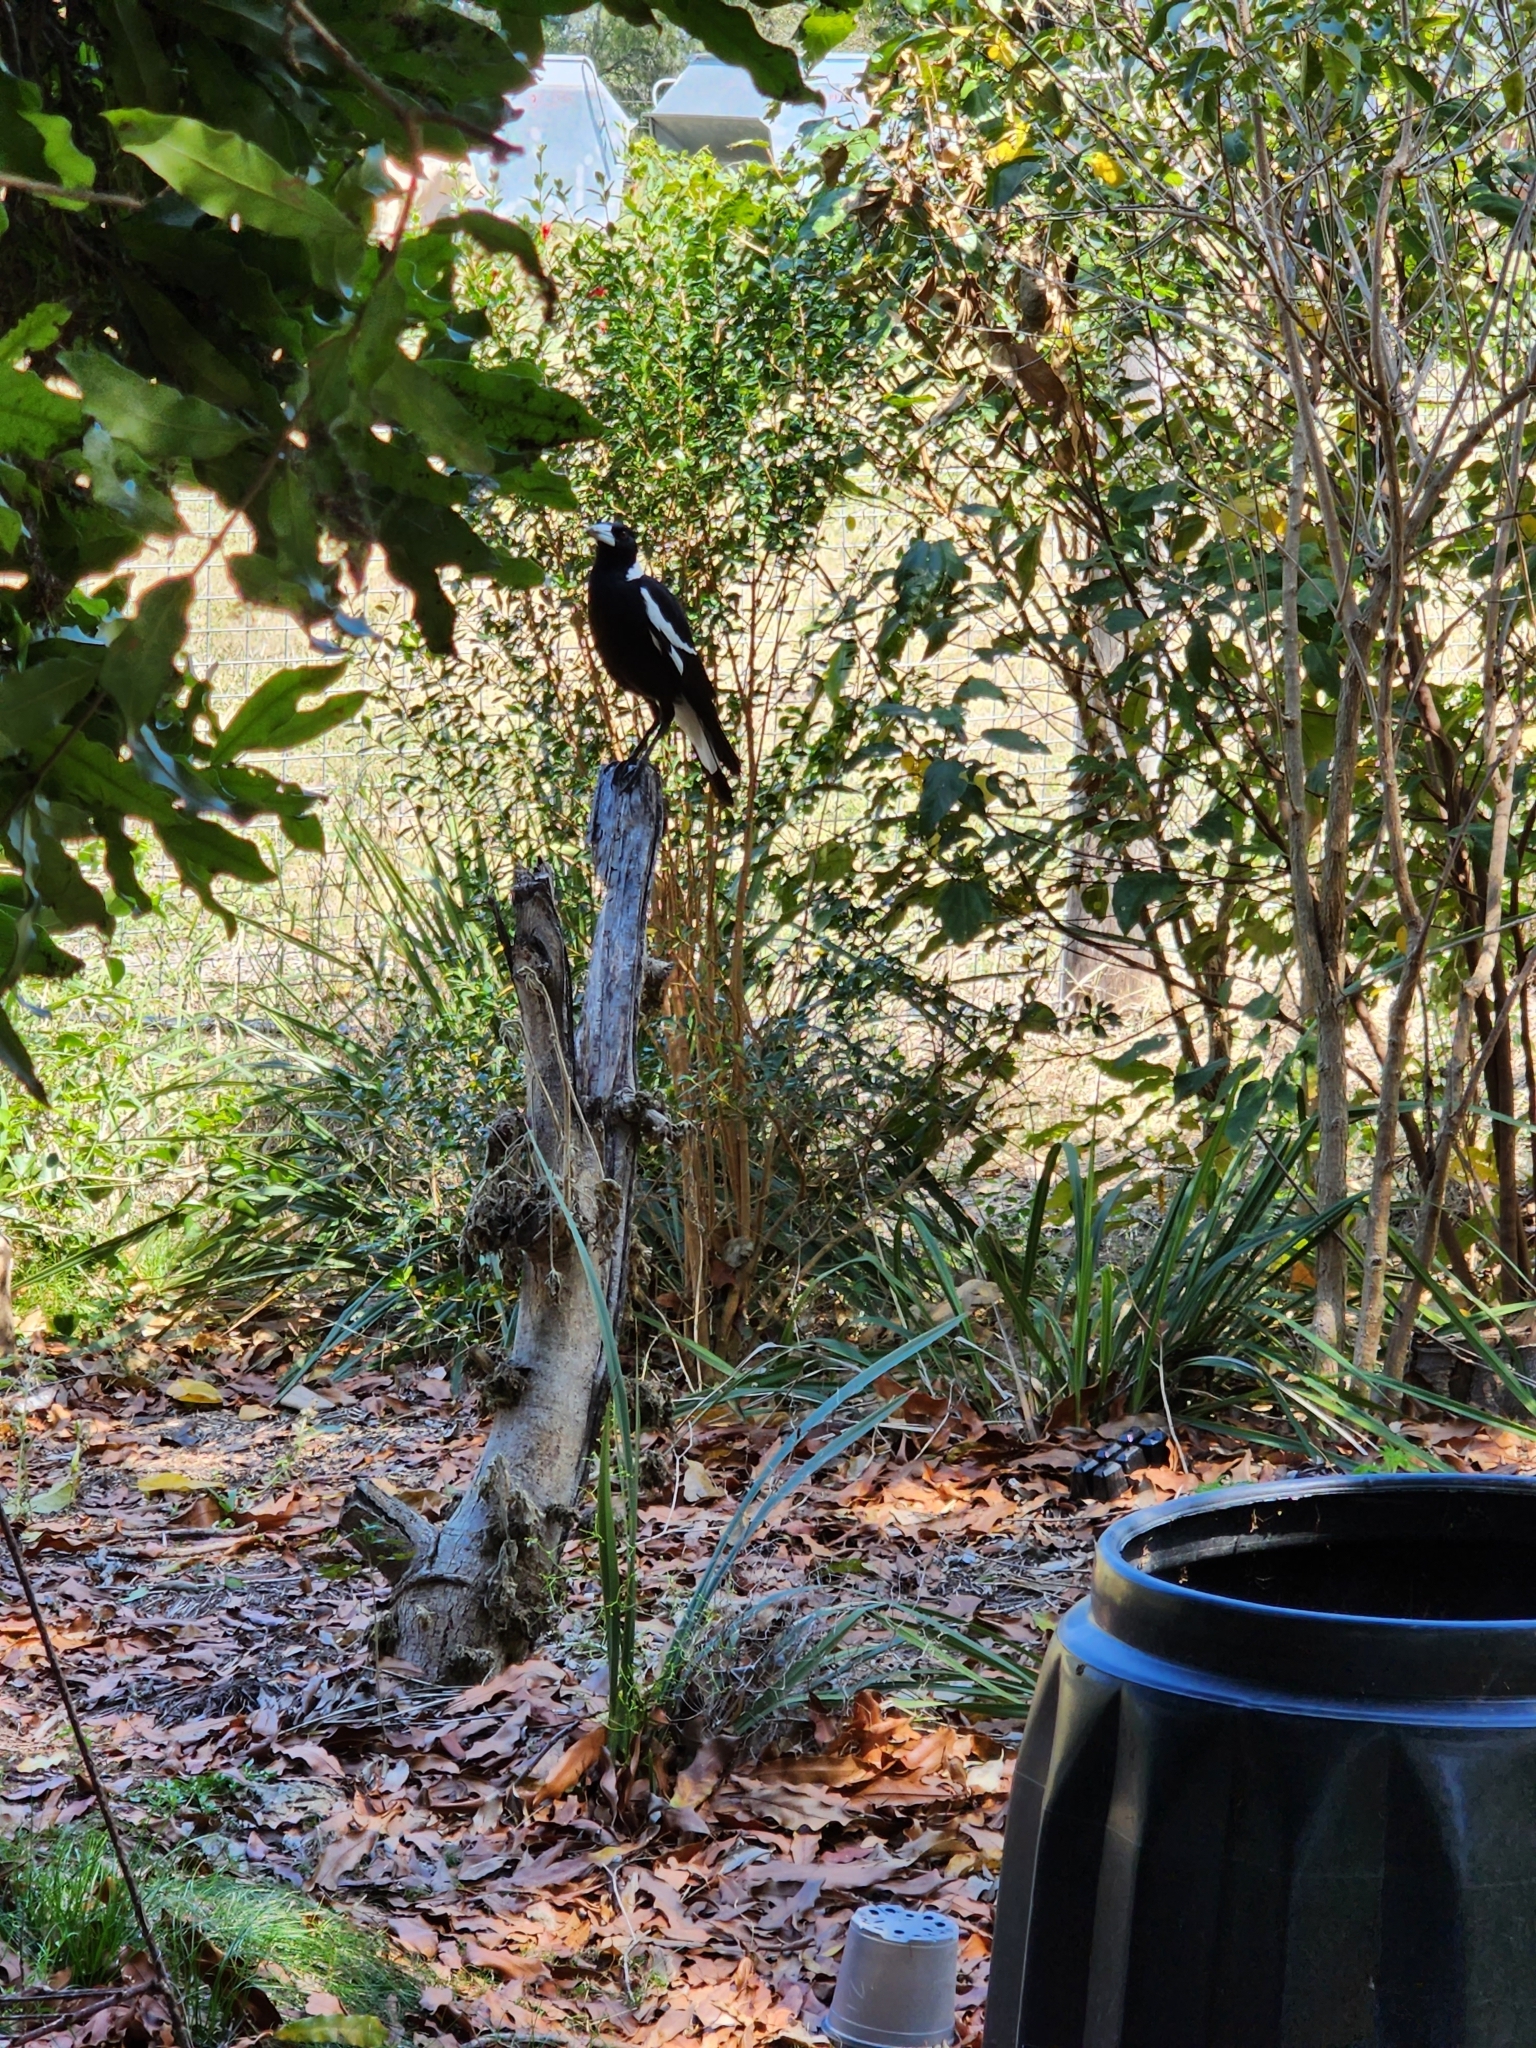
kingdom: Animalia
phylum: Chordata
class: Aves
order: Passeriformes
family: Cracticidae
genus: Gymnorhina
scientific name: Gymnorhina tibicen
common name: Australian magpie
